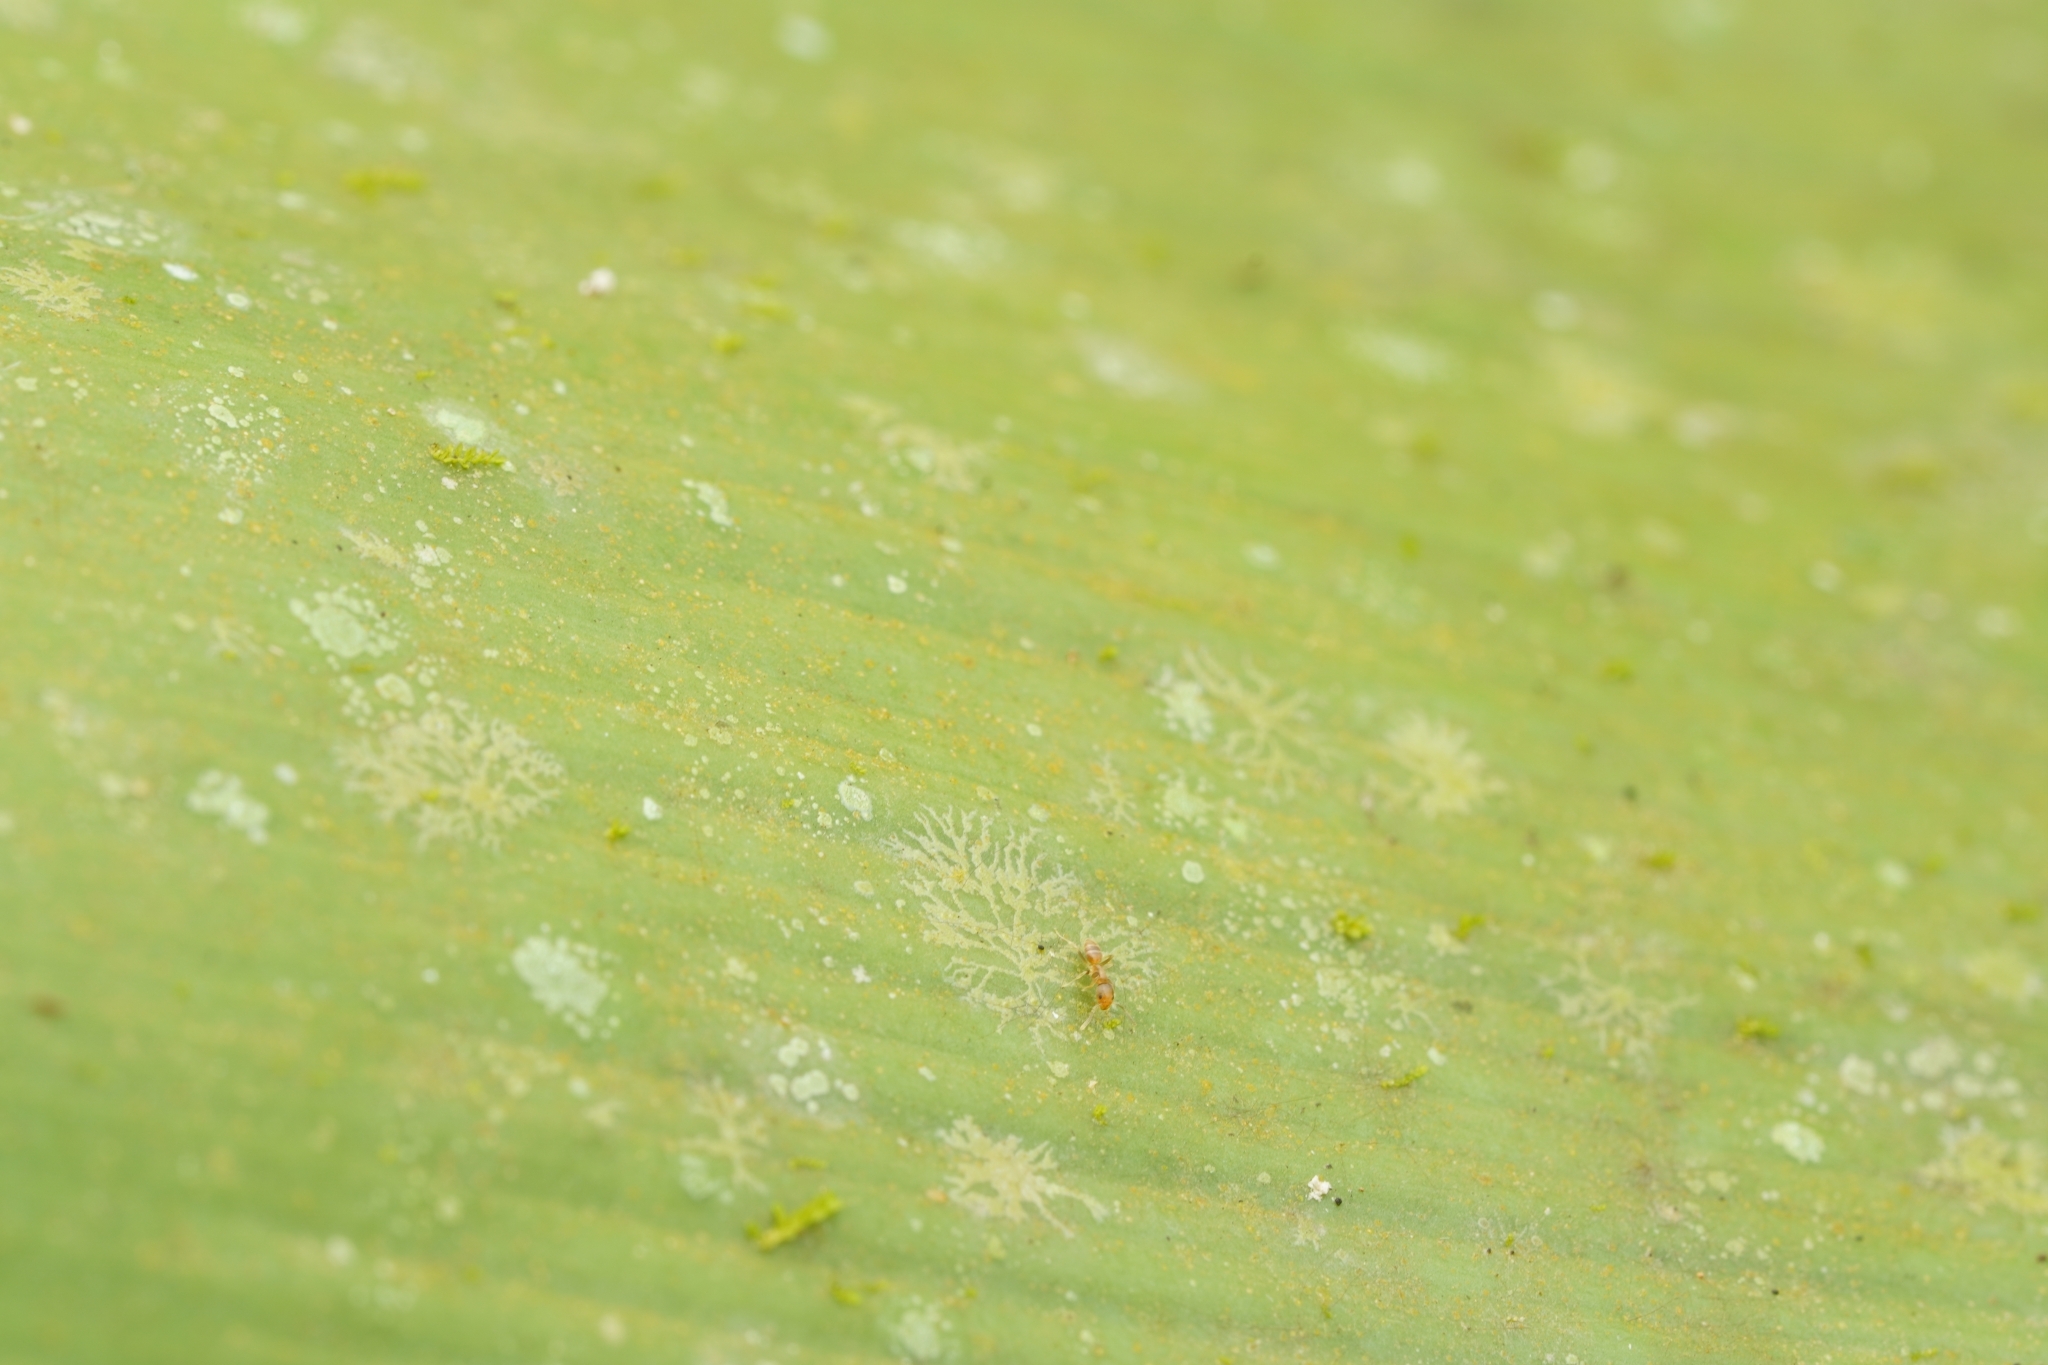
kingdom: Animalia
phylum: Arthropoda
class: Insecta
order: Hymenoptera
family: Formicidae
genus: Loweriella
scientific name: Loweriella boltoni
